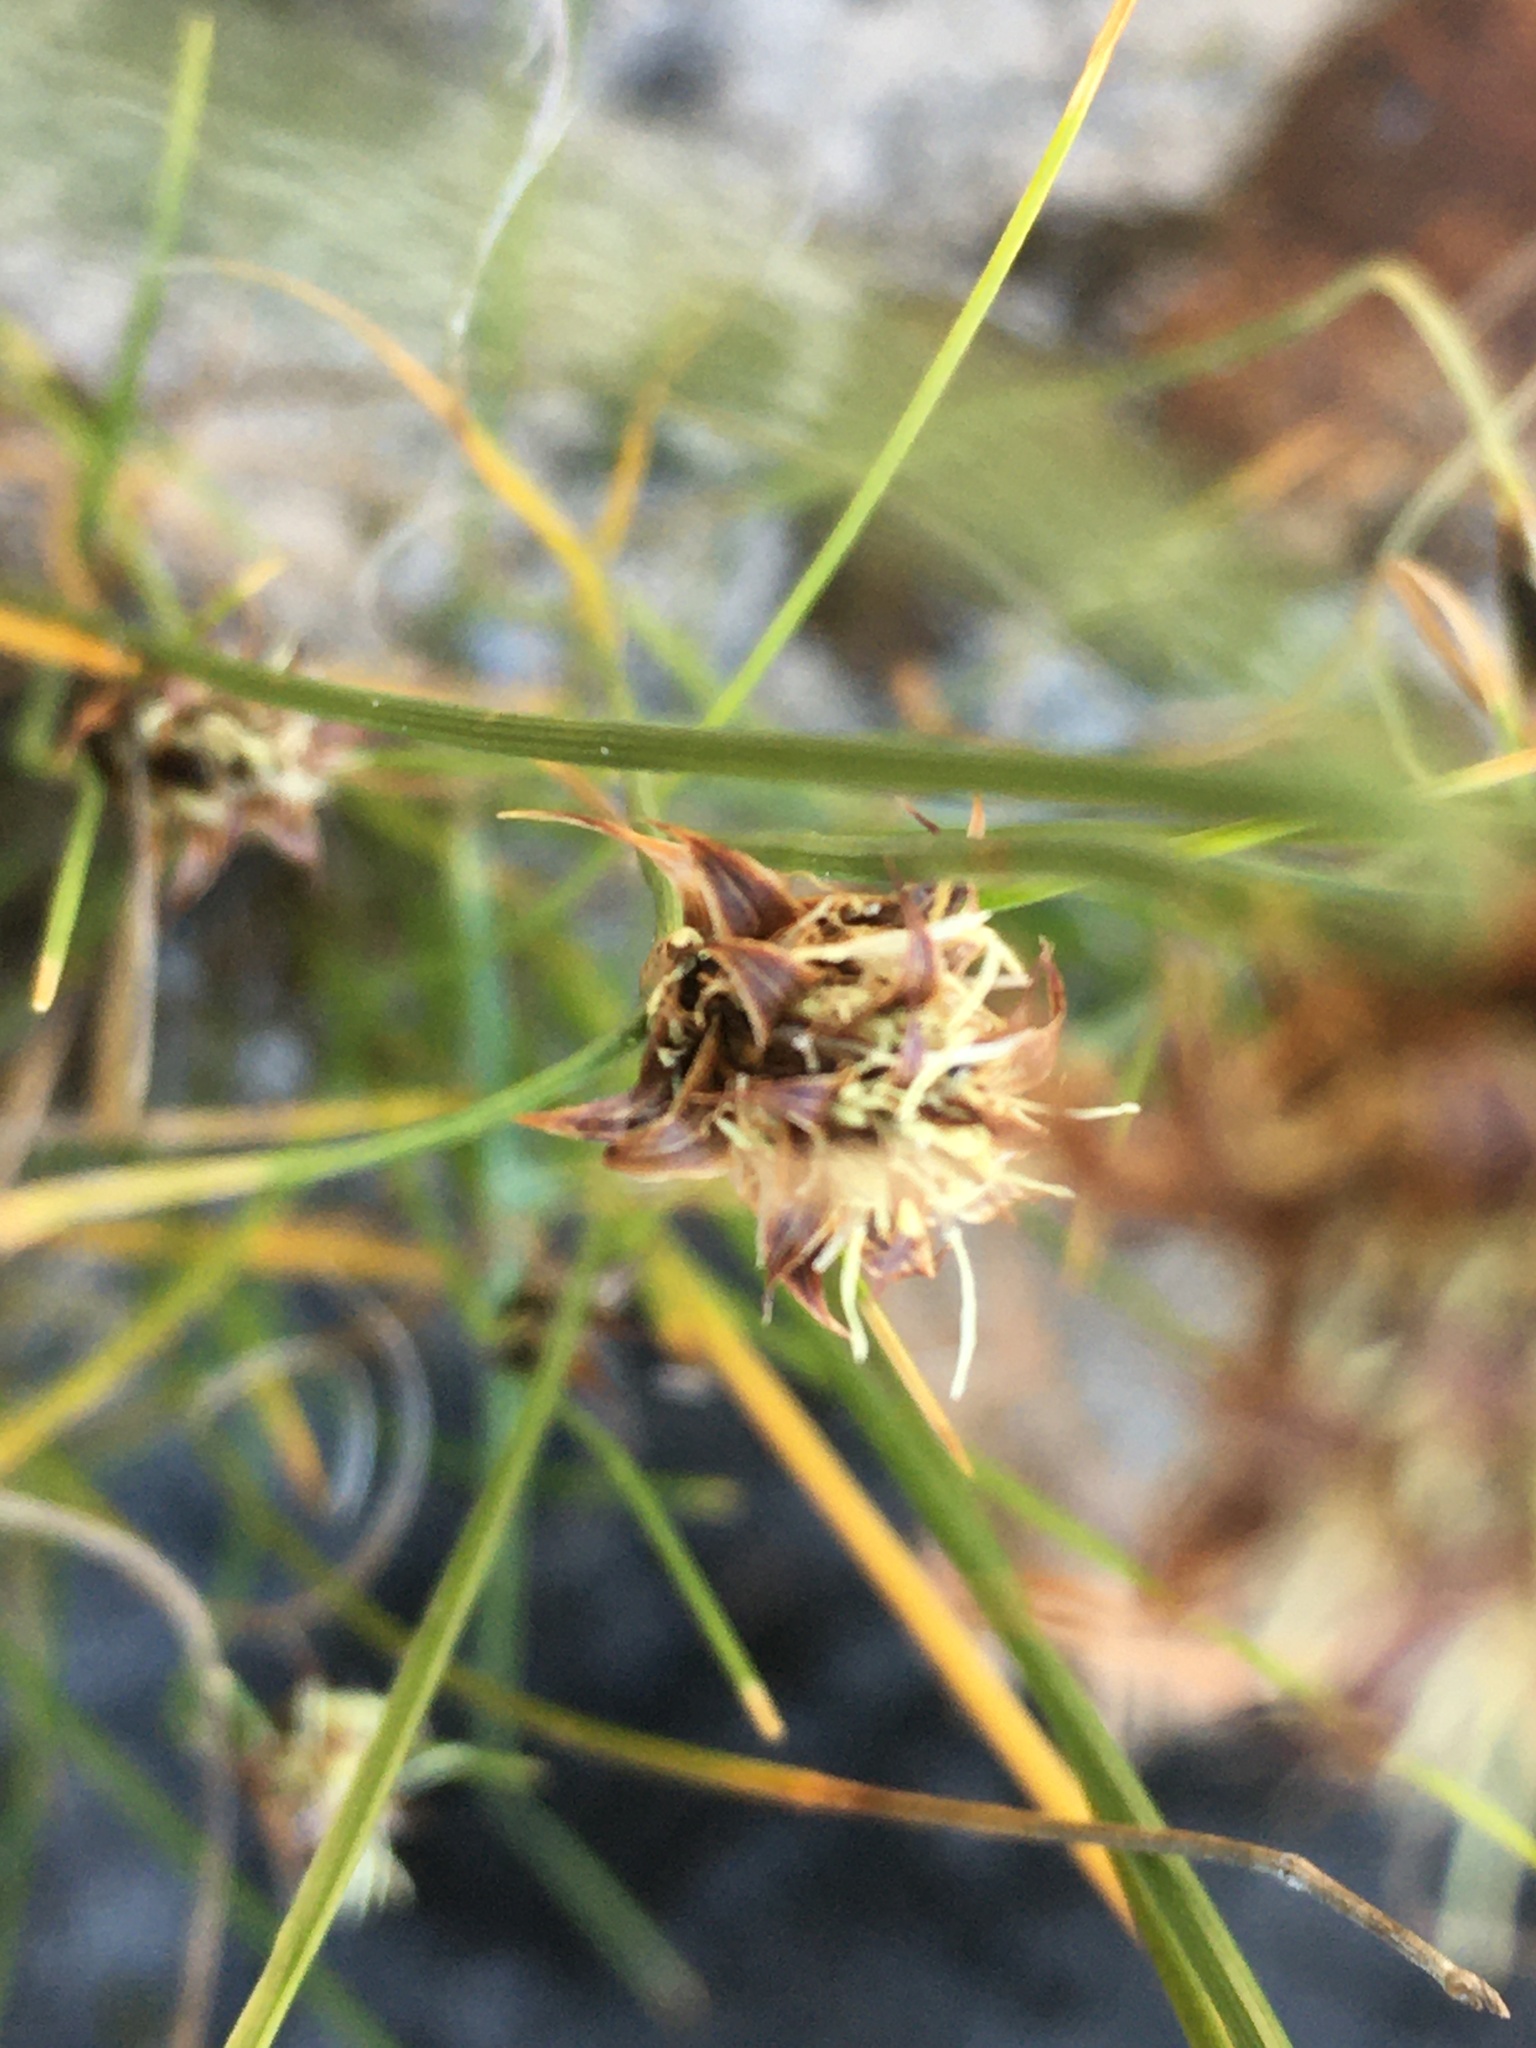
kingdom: Plantae
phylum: Tracheophyta
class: Liliopsida
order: Poales
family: Cyperaceae
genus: Ficinia
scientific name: Ficinia nigrescens
